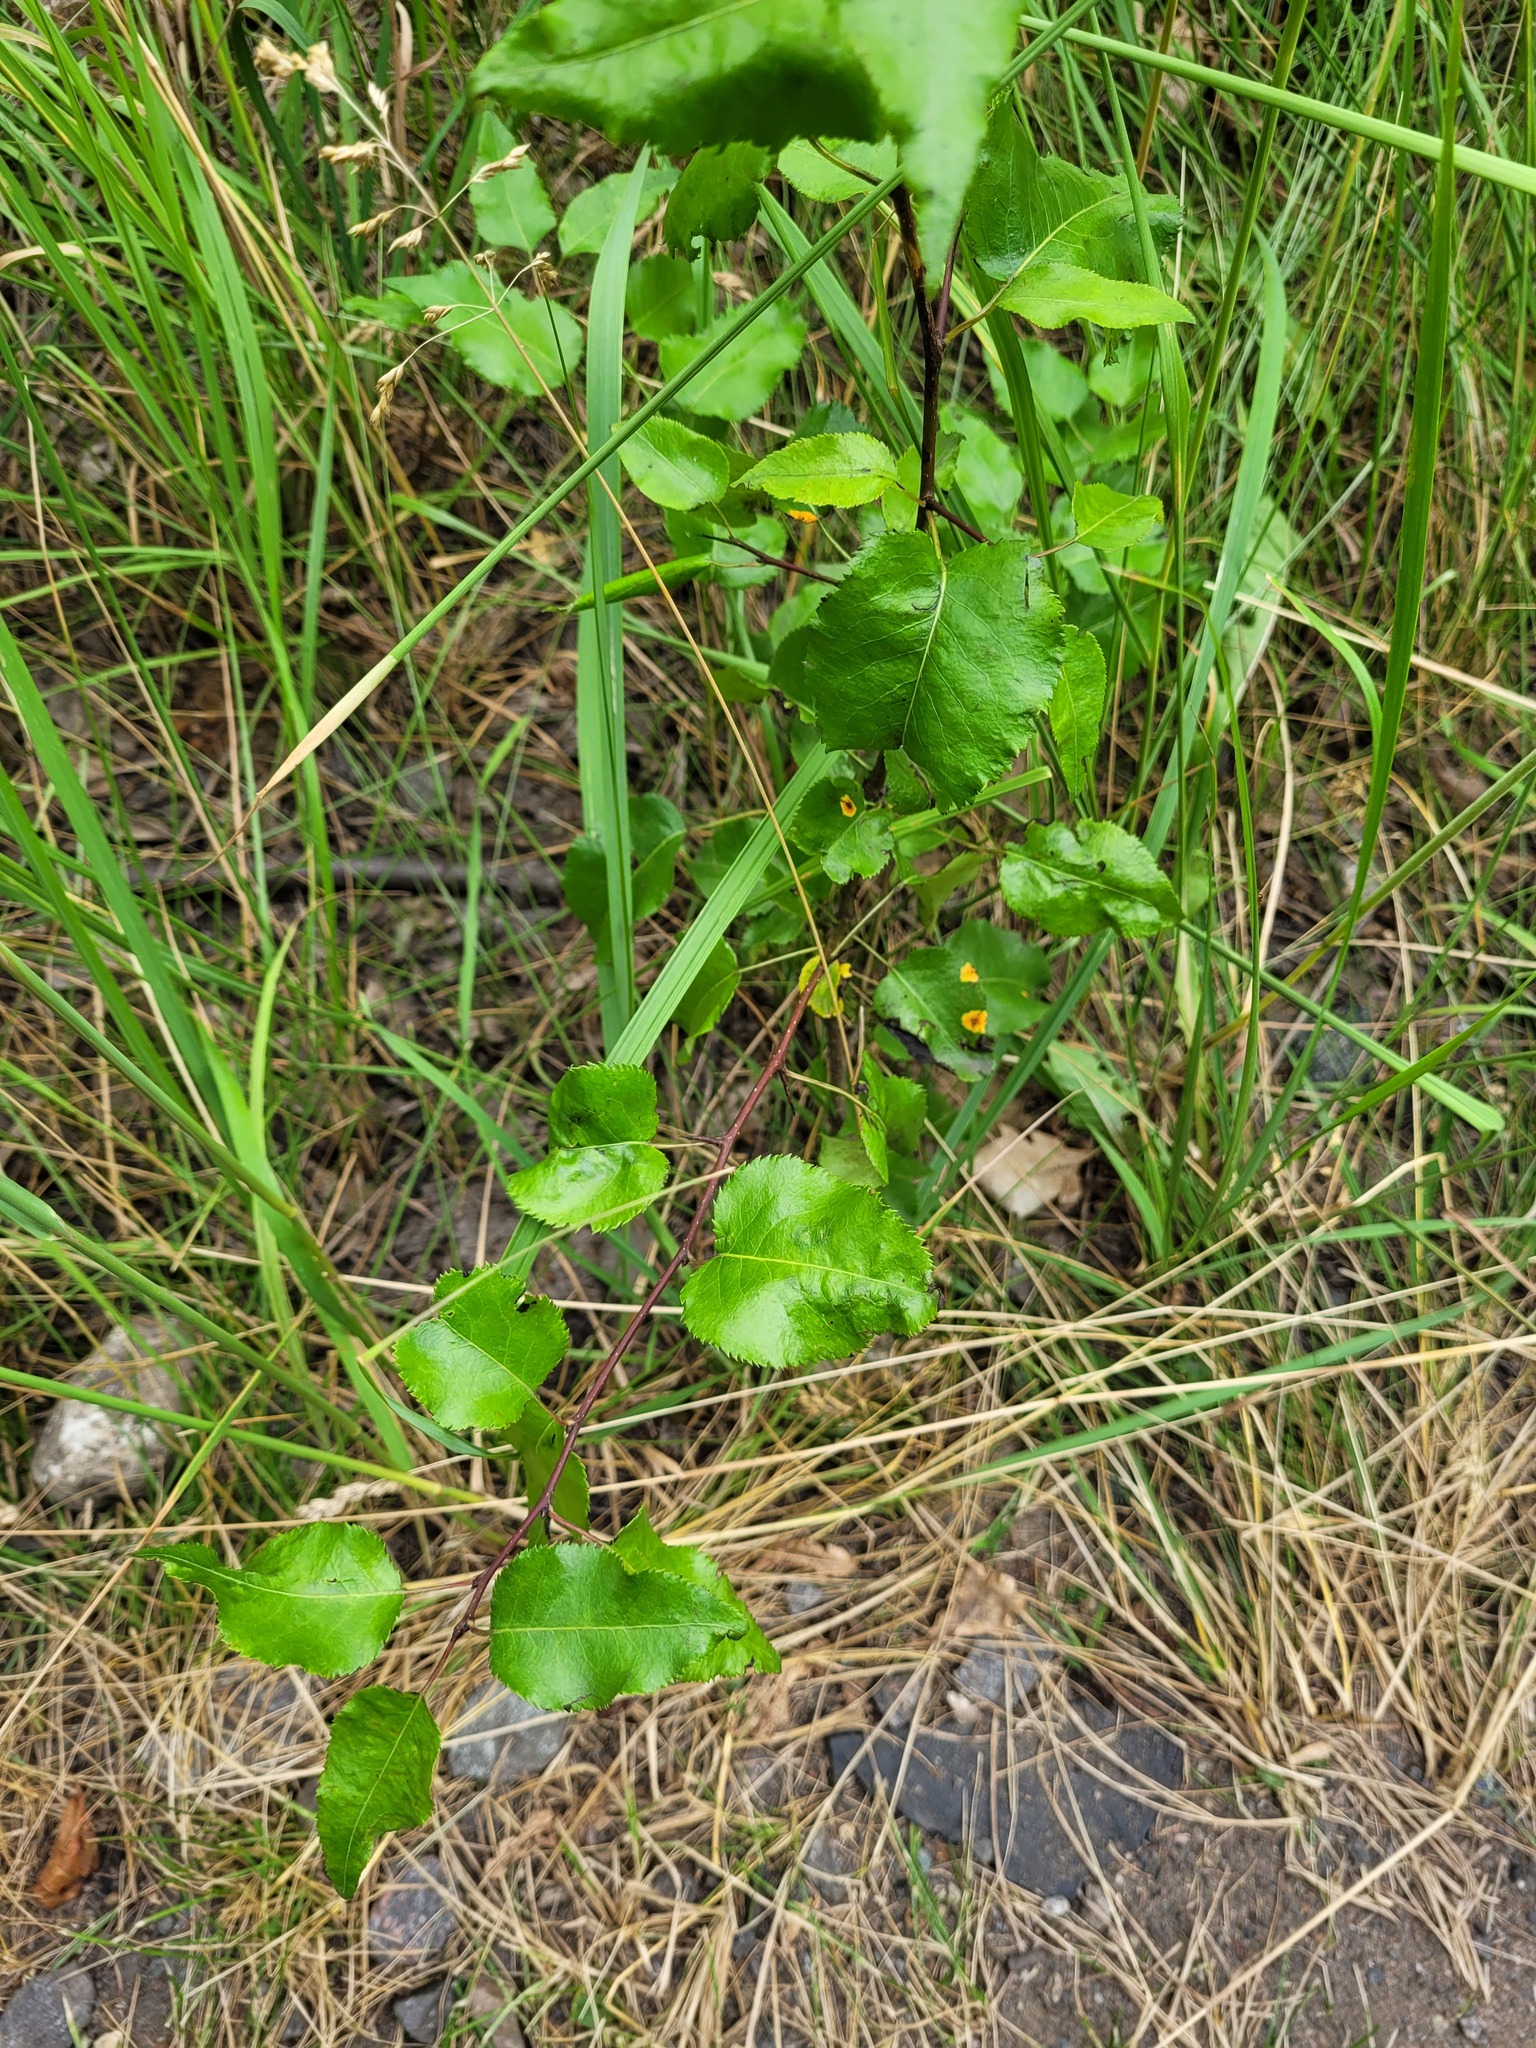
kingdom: Plantae
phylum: Tracheophyta
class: Magnoliopsida
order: Rosales
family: Rosaceae
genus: Pyrus
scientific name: Pyrus communis
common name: Pear
